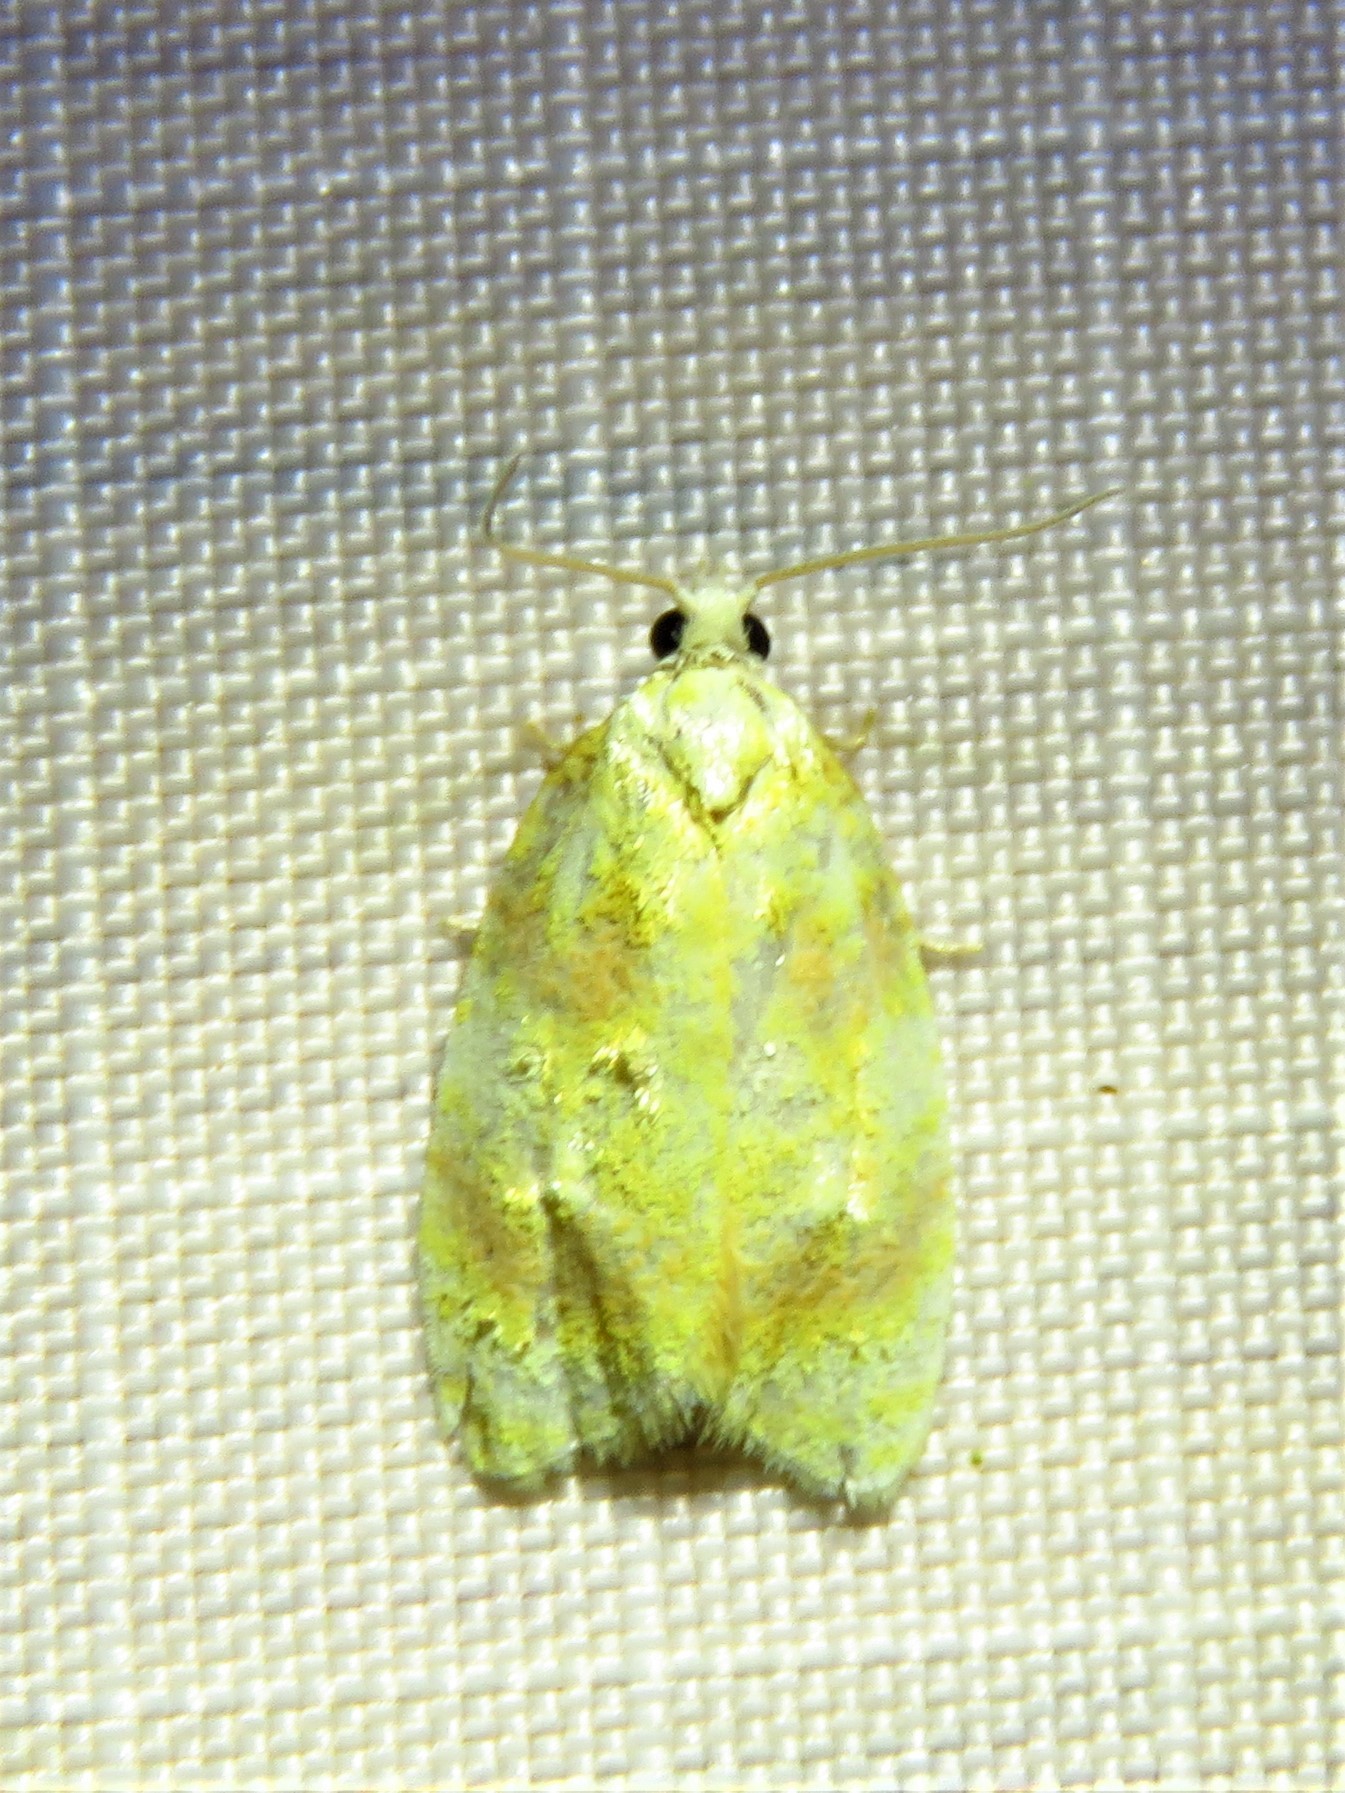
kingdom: Animalia
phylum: Arthropoda
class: Insecta
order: Lepidoptera
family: Tortricidae
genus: Acleris
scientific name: Acleris semipurpurana
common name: Oak leaftier moth
